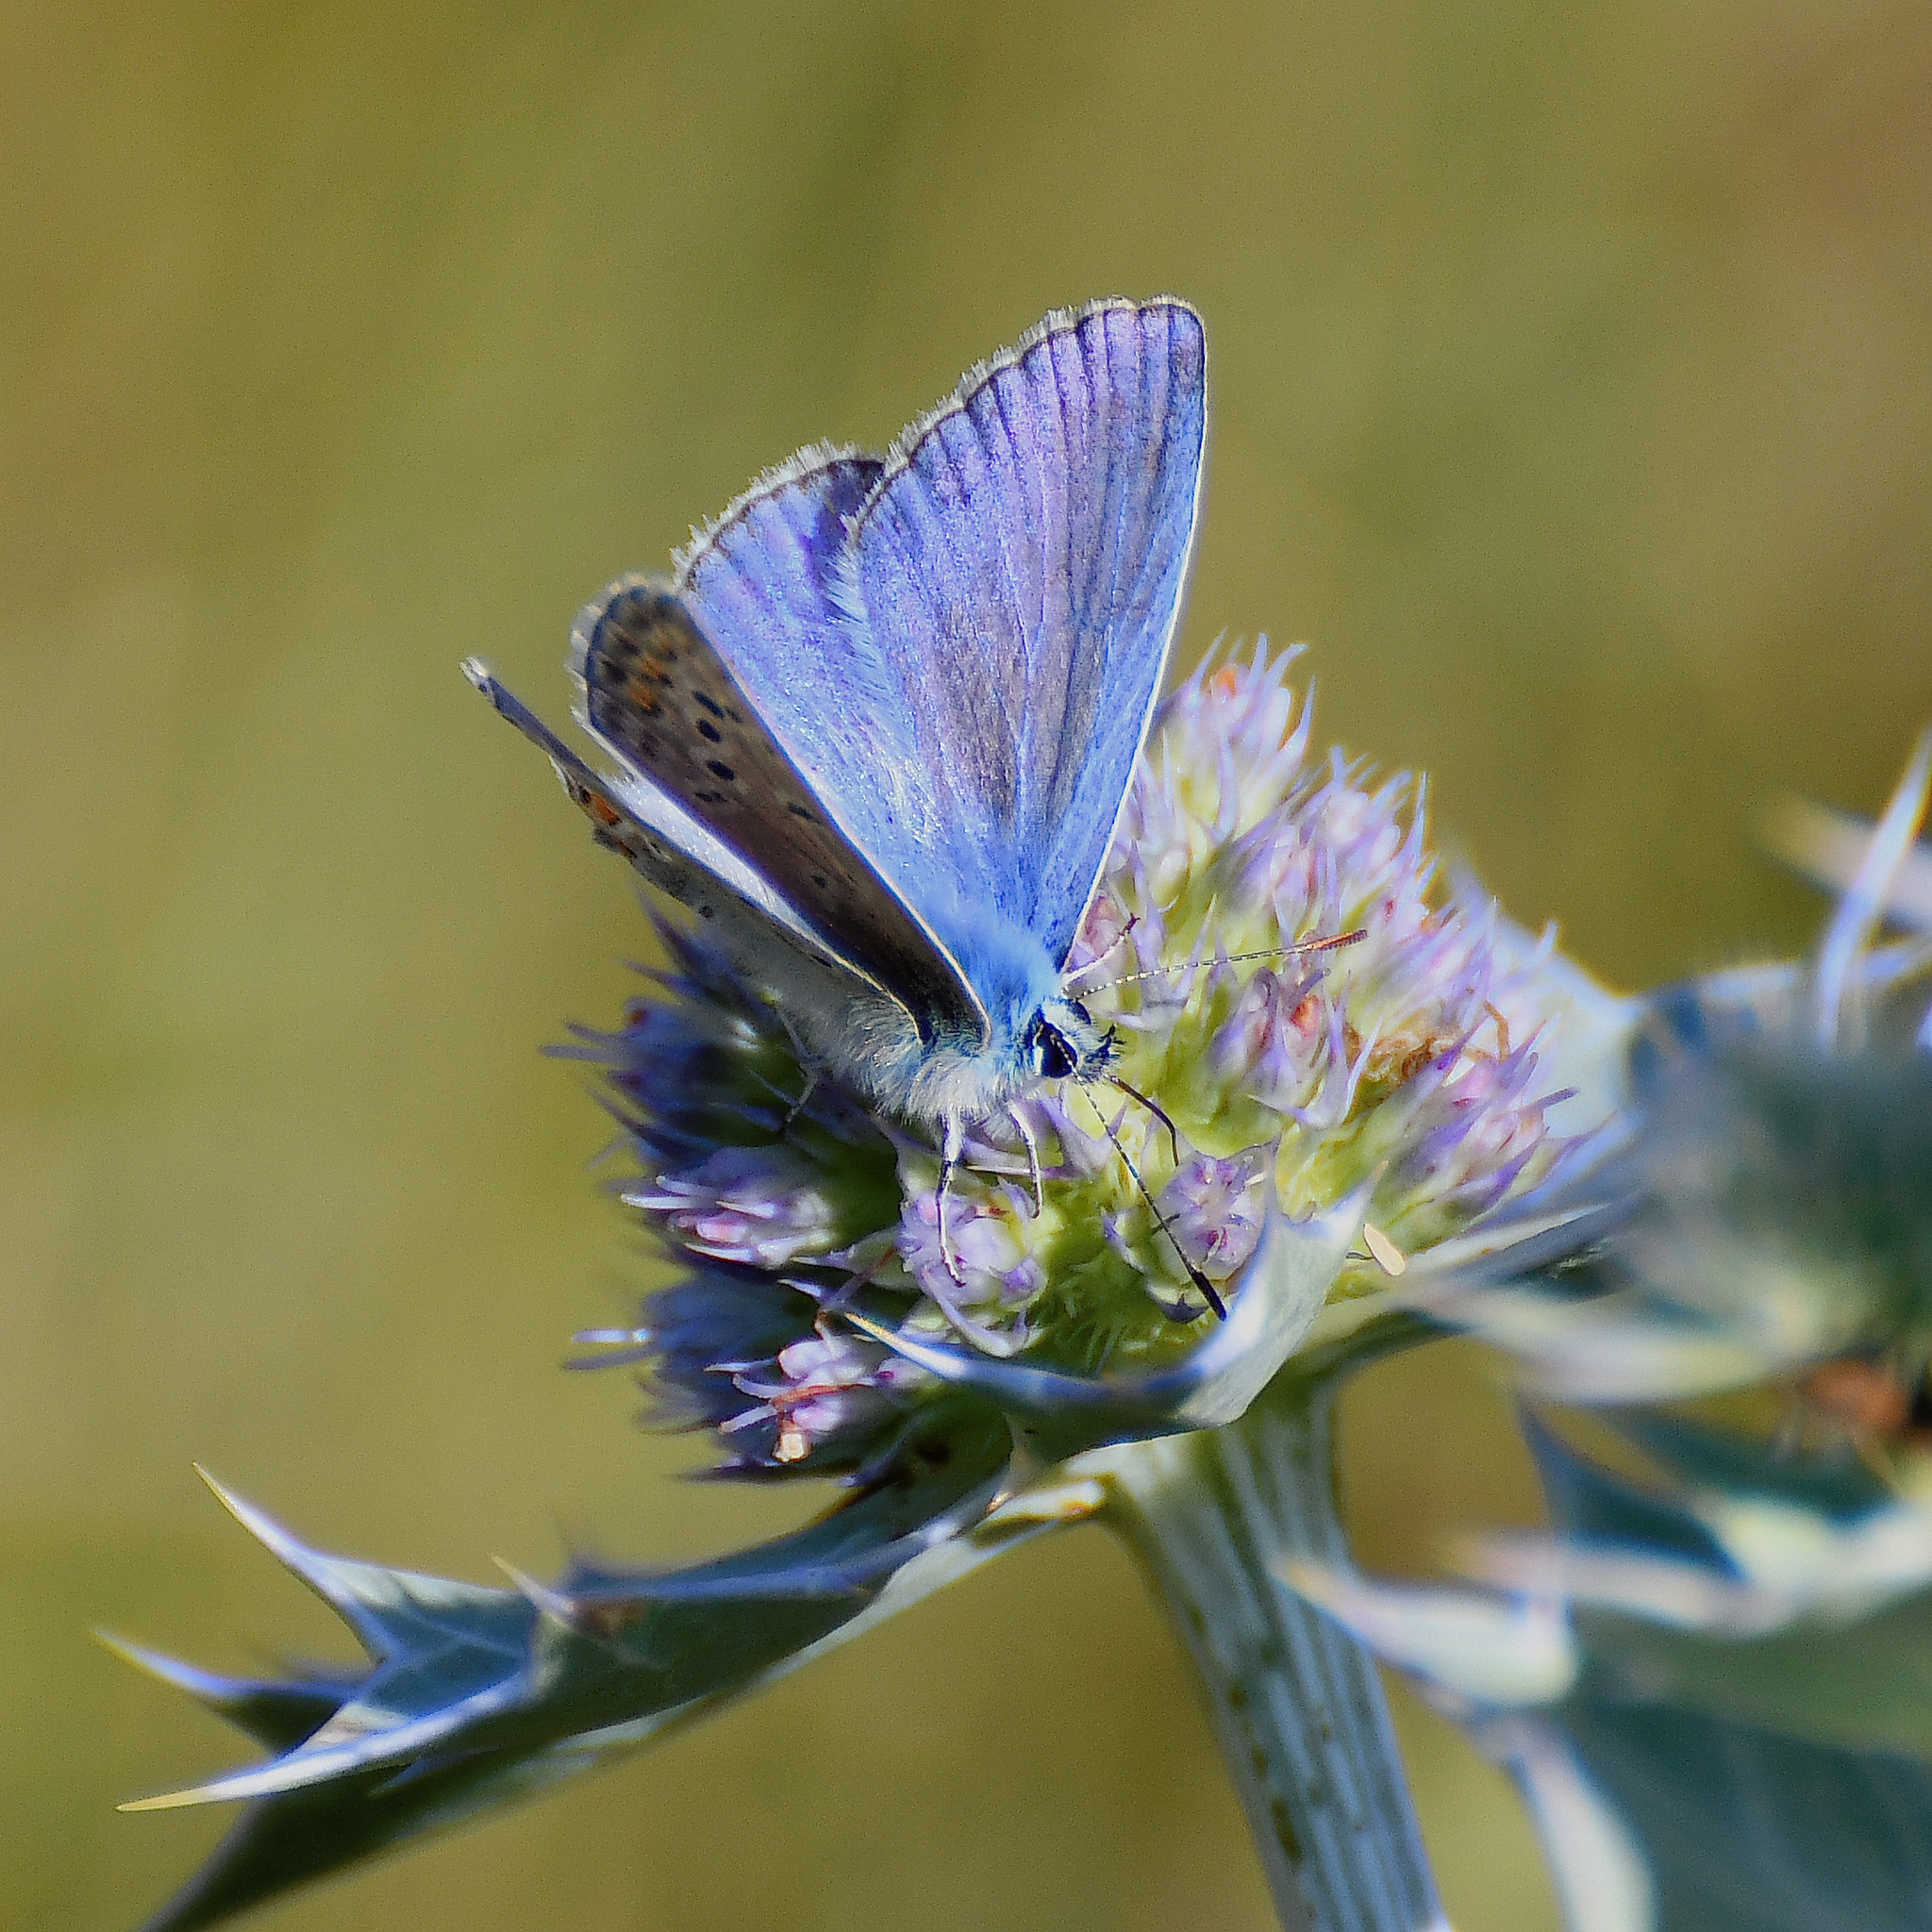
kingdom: Animalia
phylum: Arthropoda
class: Insecta
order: Lepidoptera
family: Lycaenidae
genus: Polyommatus
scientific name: Polyommatus icarus
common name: Common blue
